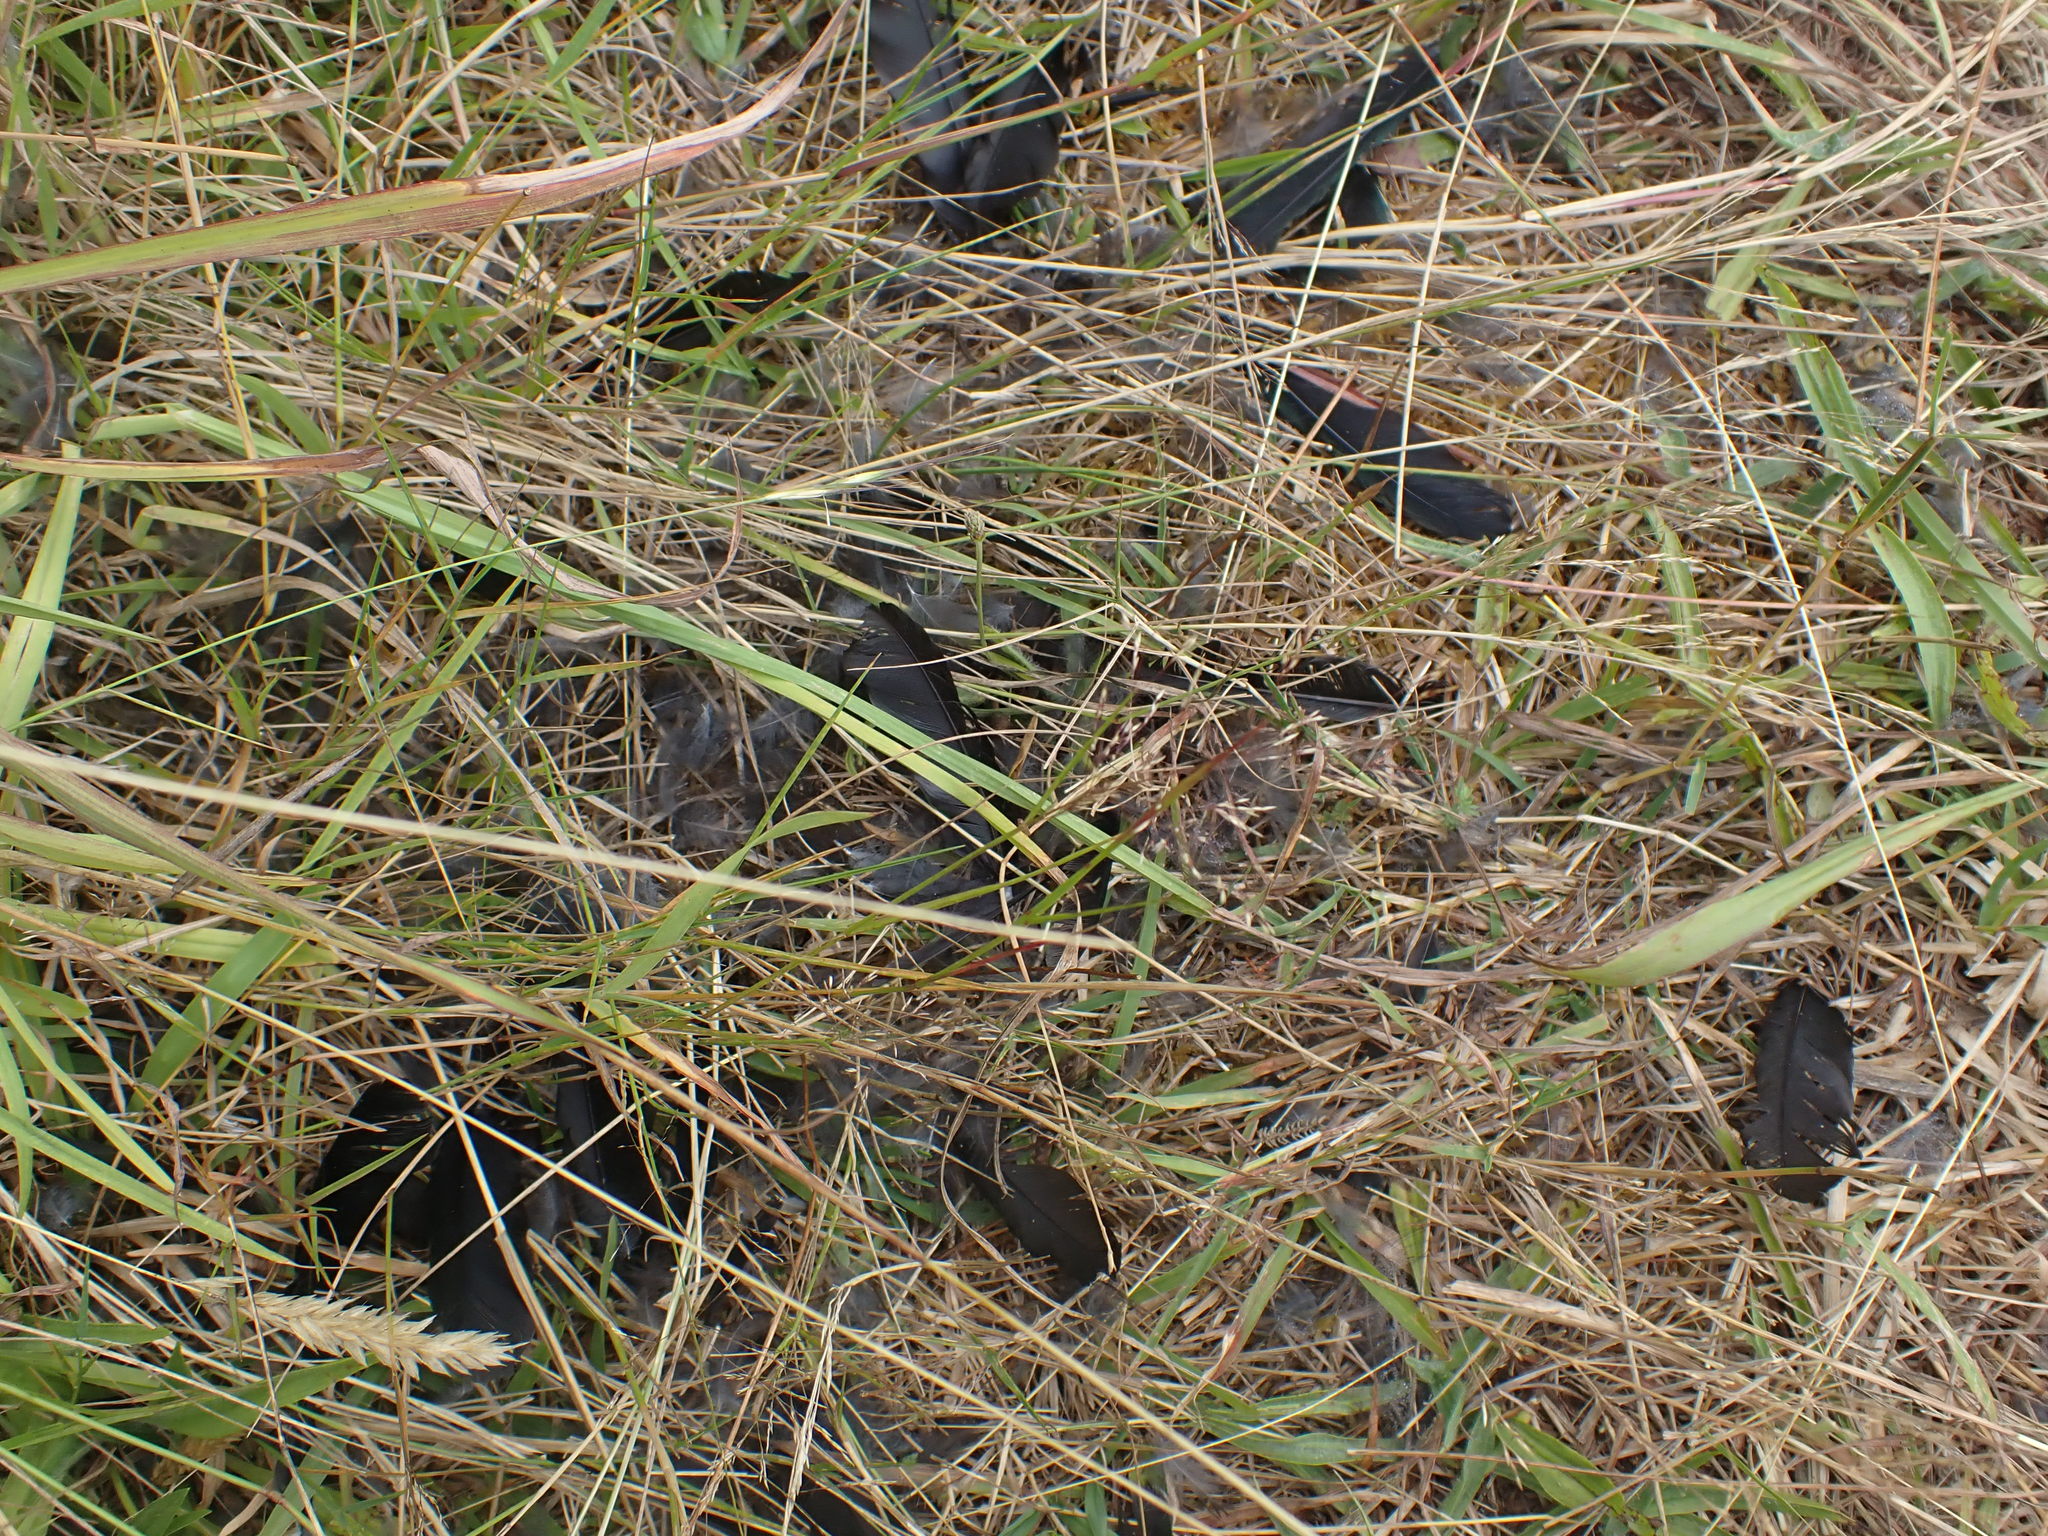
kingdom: Animalia
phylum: Chordata
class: Aves
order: Passeriformes
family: Meliphagidae
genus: Prosthemadera
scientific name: Prosthemadera novaeseelandiae
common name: Tui
